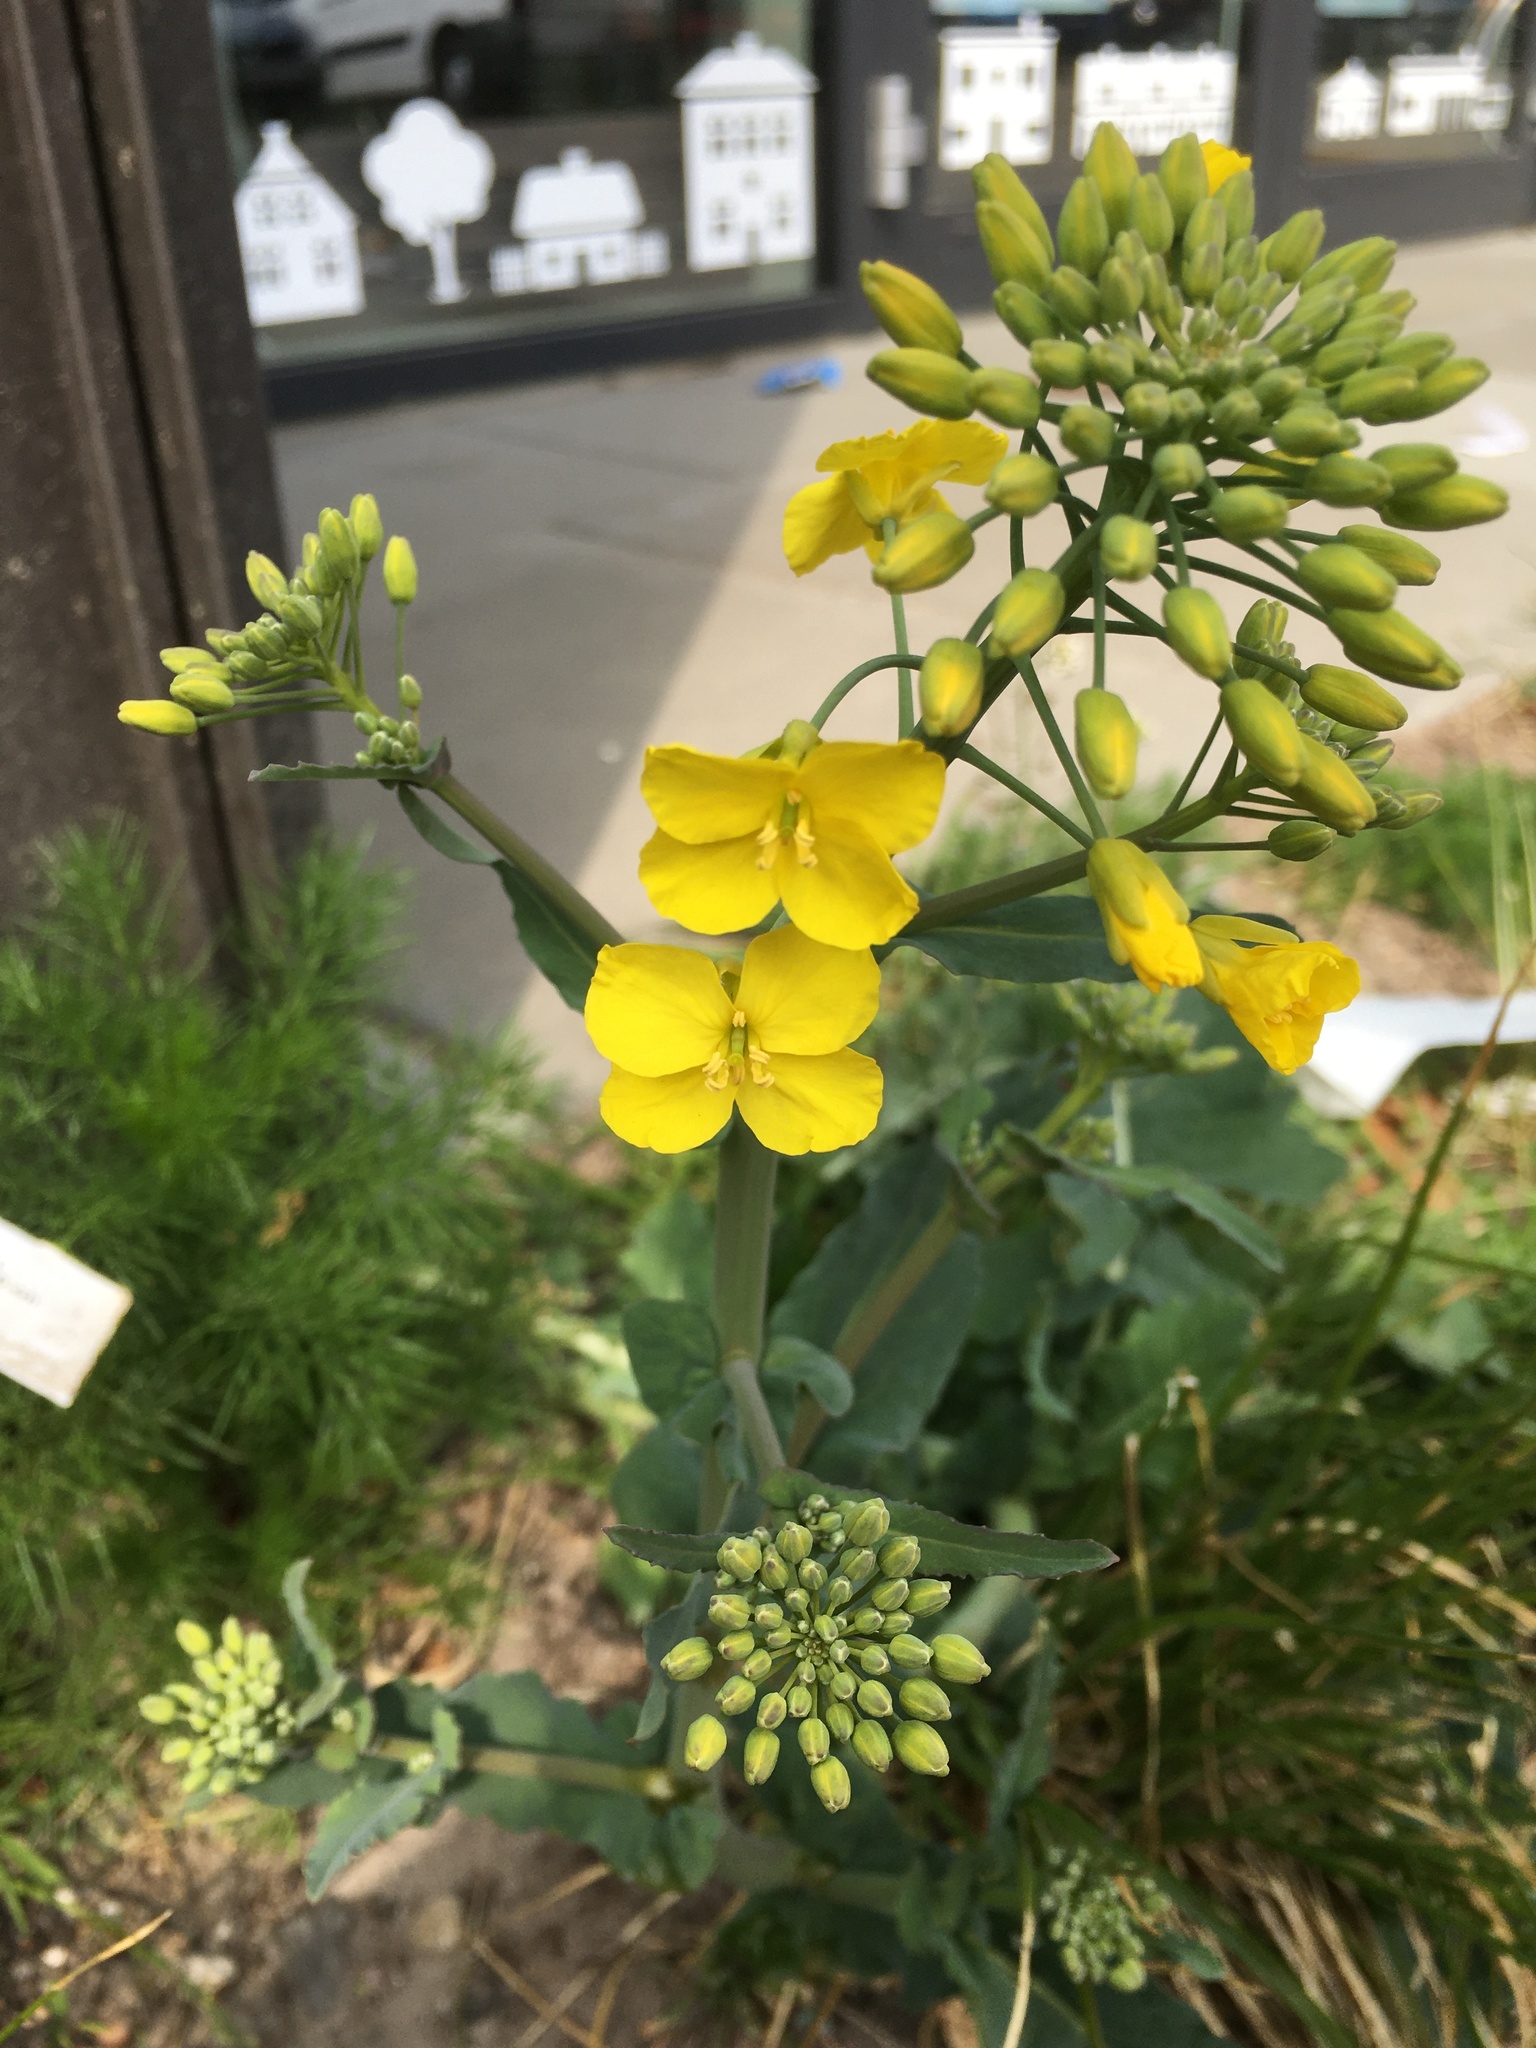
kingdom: Plantae
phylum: Tracheophyta
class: Magnoliopsida
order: Brassicales
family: Brassicaceae
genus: Brassica
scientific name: Brassica napus
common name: Rape
